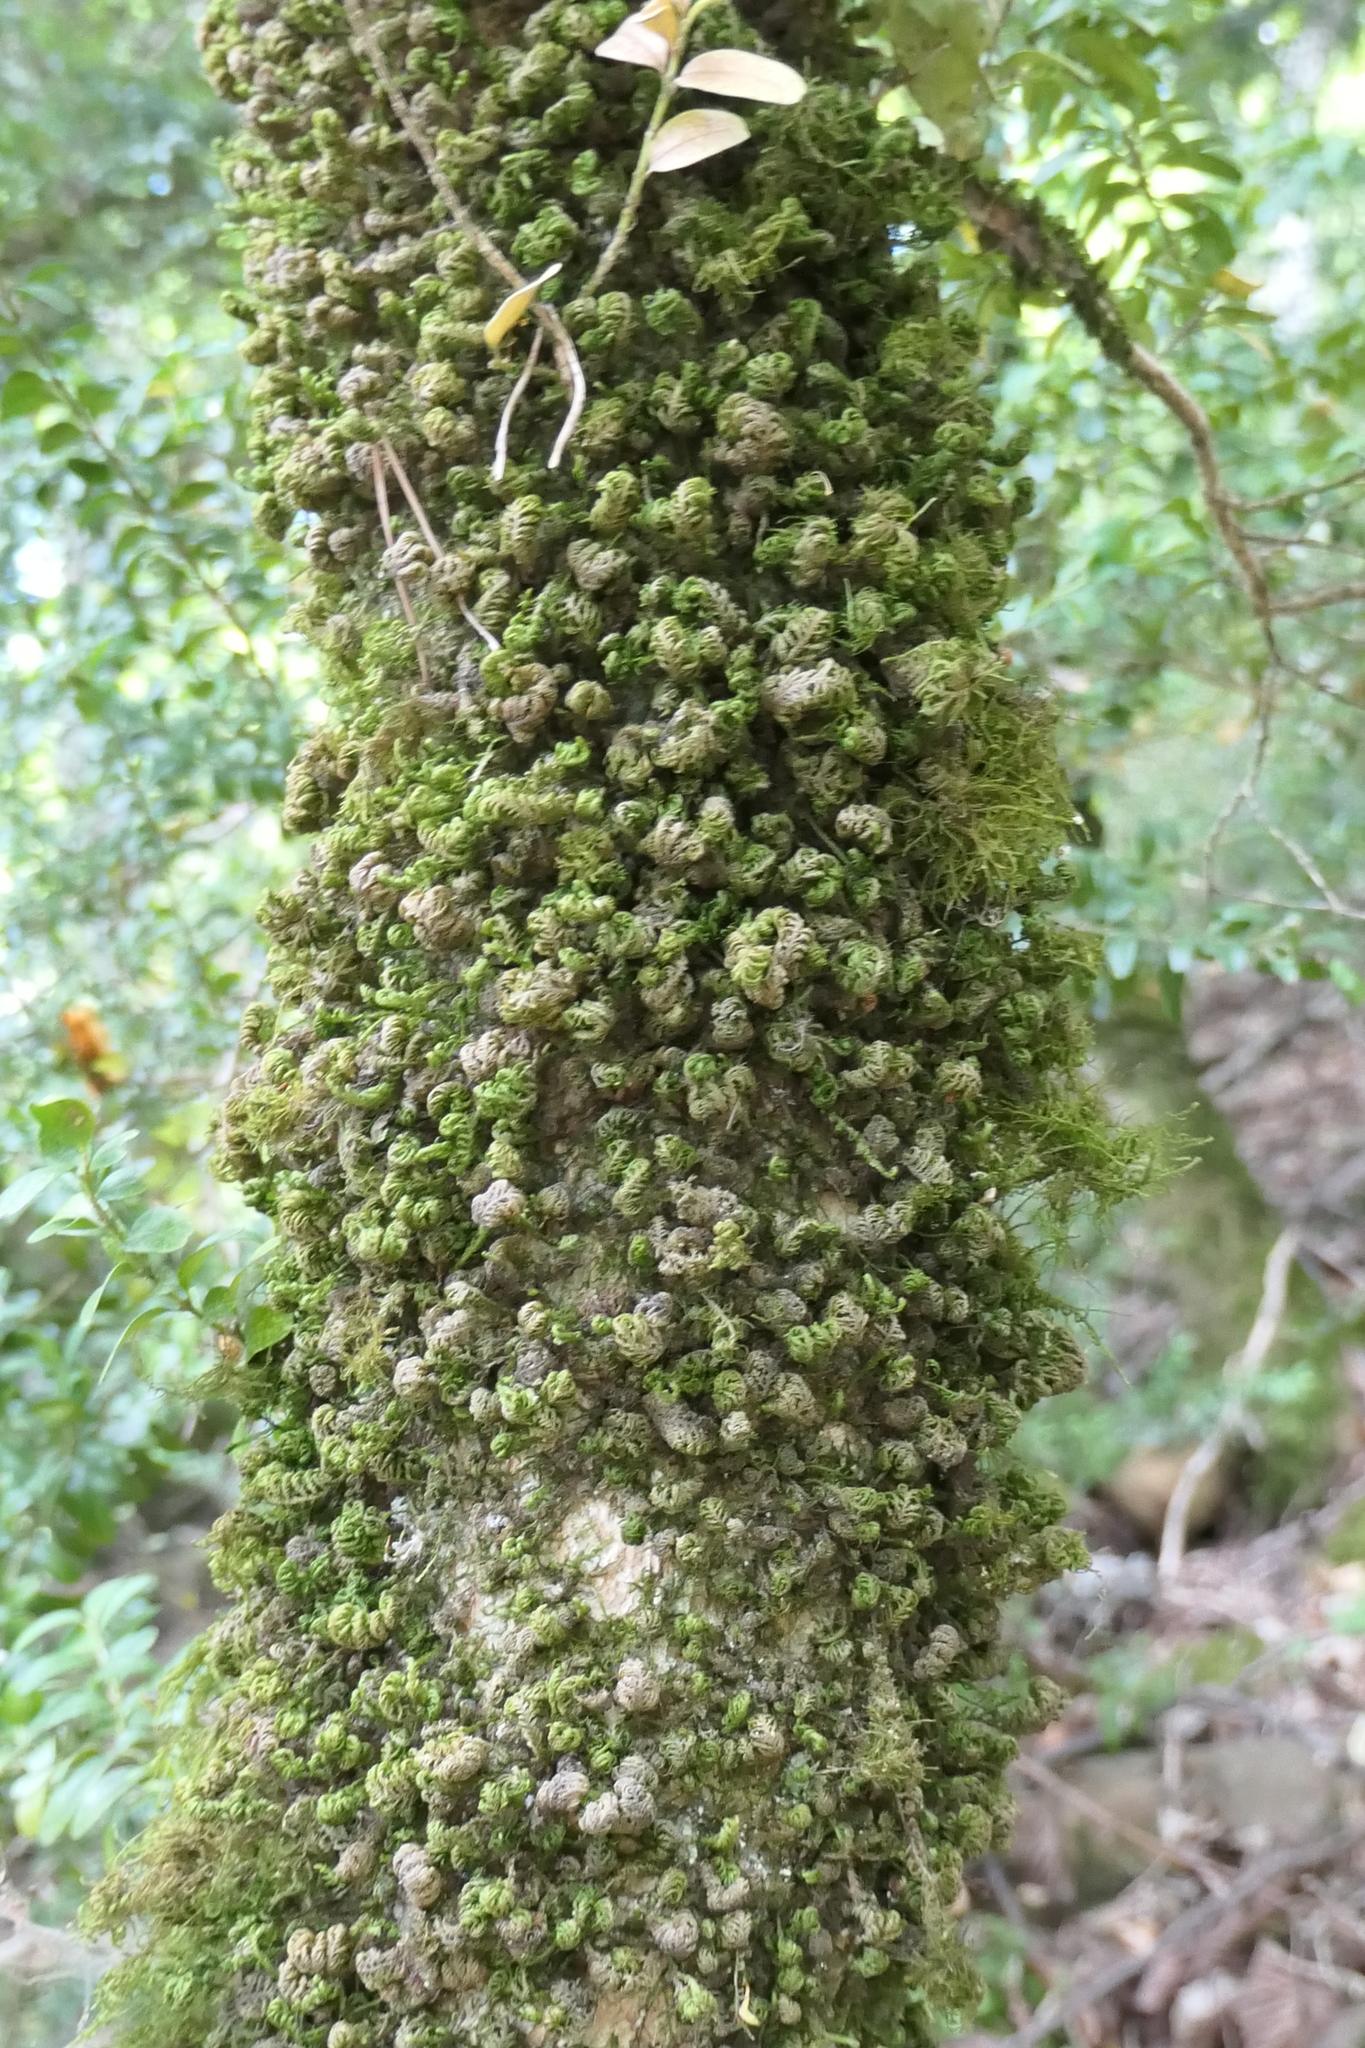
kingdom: Plantae
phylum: Bryophyta
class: Bryopsida
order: Hypnales
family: Neckeraceae
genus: Leptodon
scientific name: Leptodon smithii
